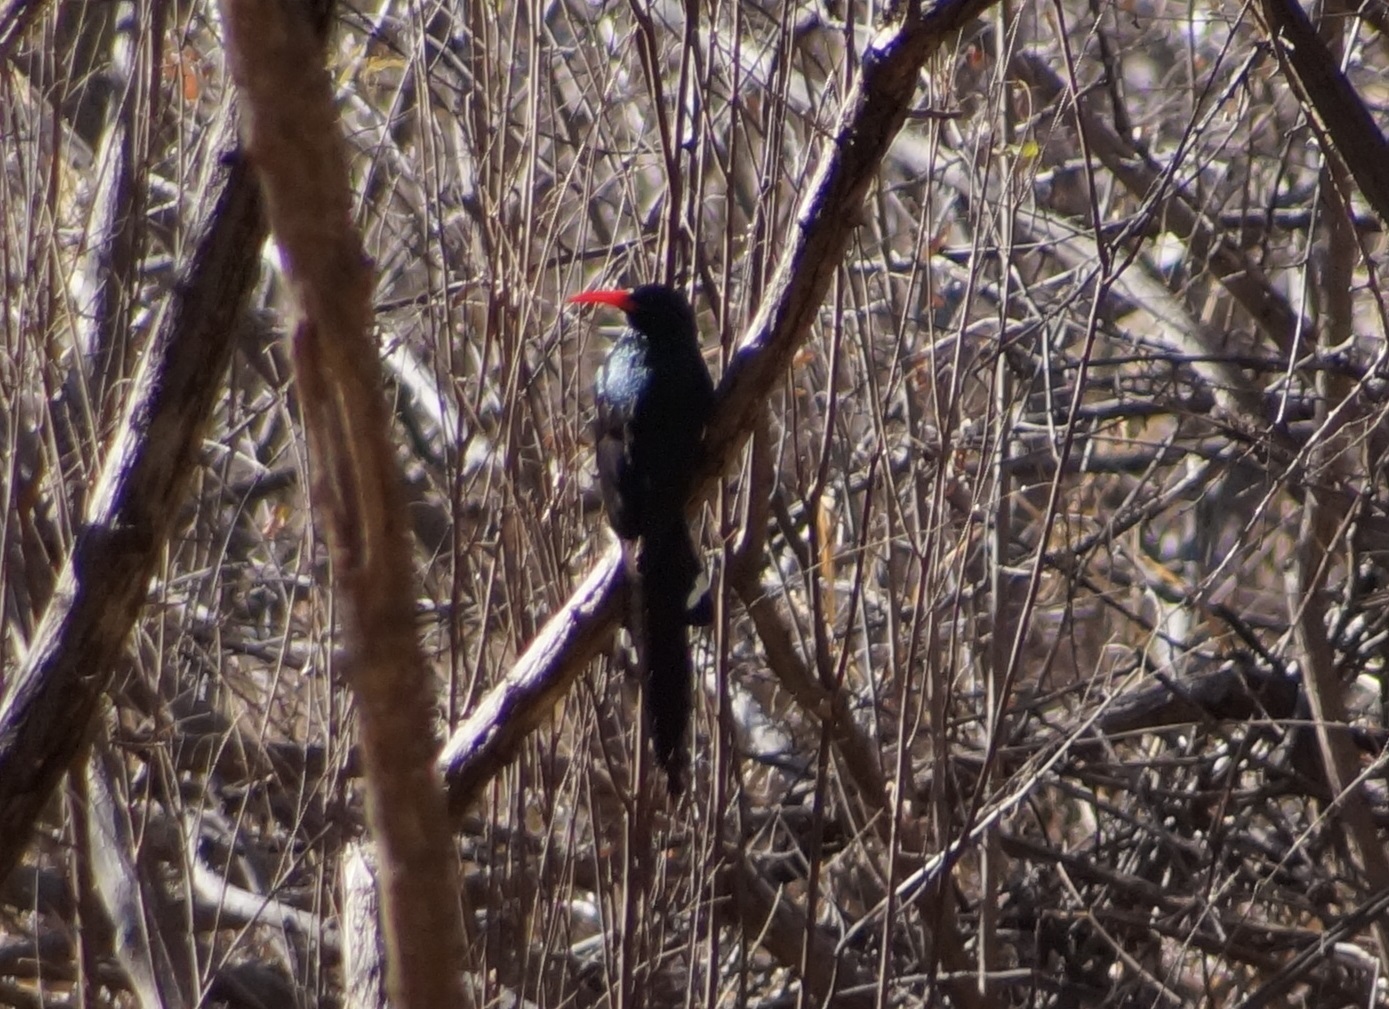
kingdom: Animalia
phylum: Chordata
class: Aves
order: Bucerotiformes
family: Phoeniculidae
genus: Phoeniculus
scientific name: Phoeniculus purpureus
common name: Green woodhoopoe
